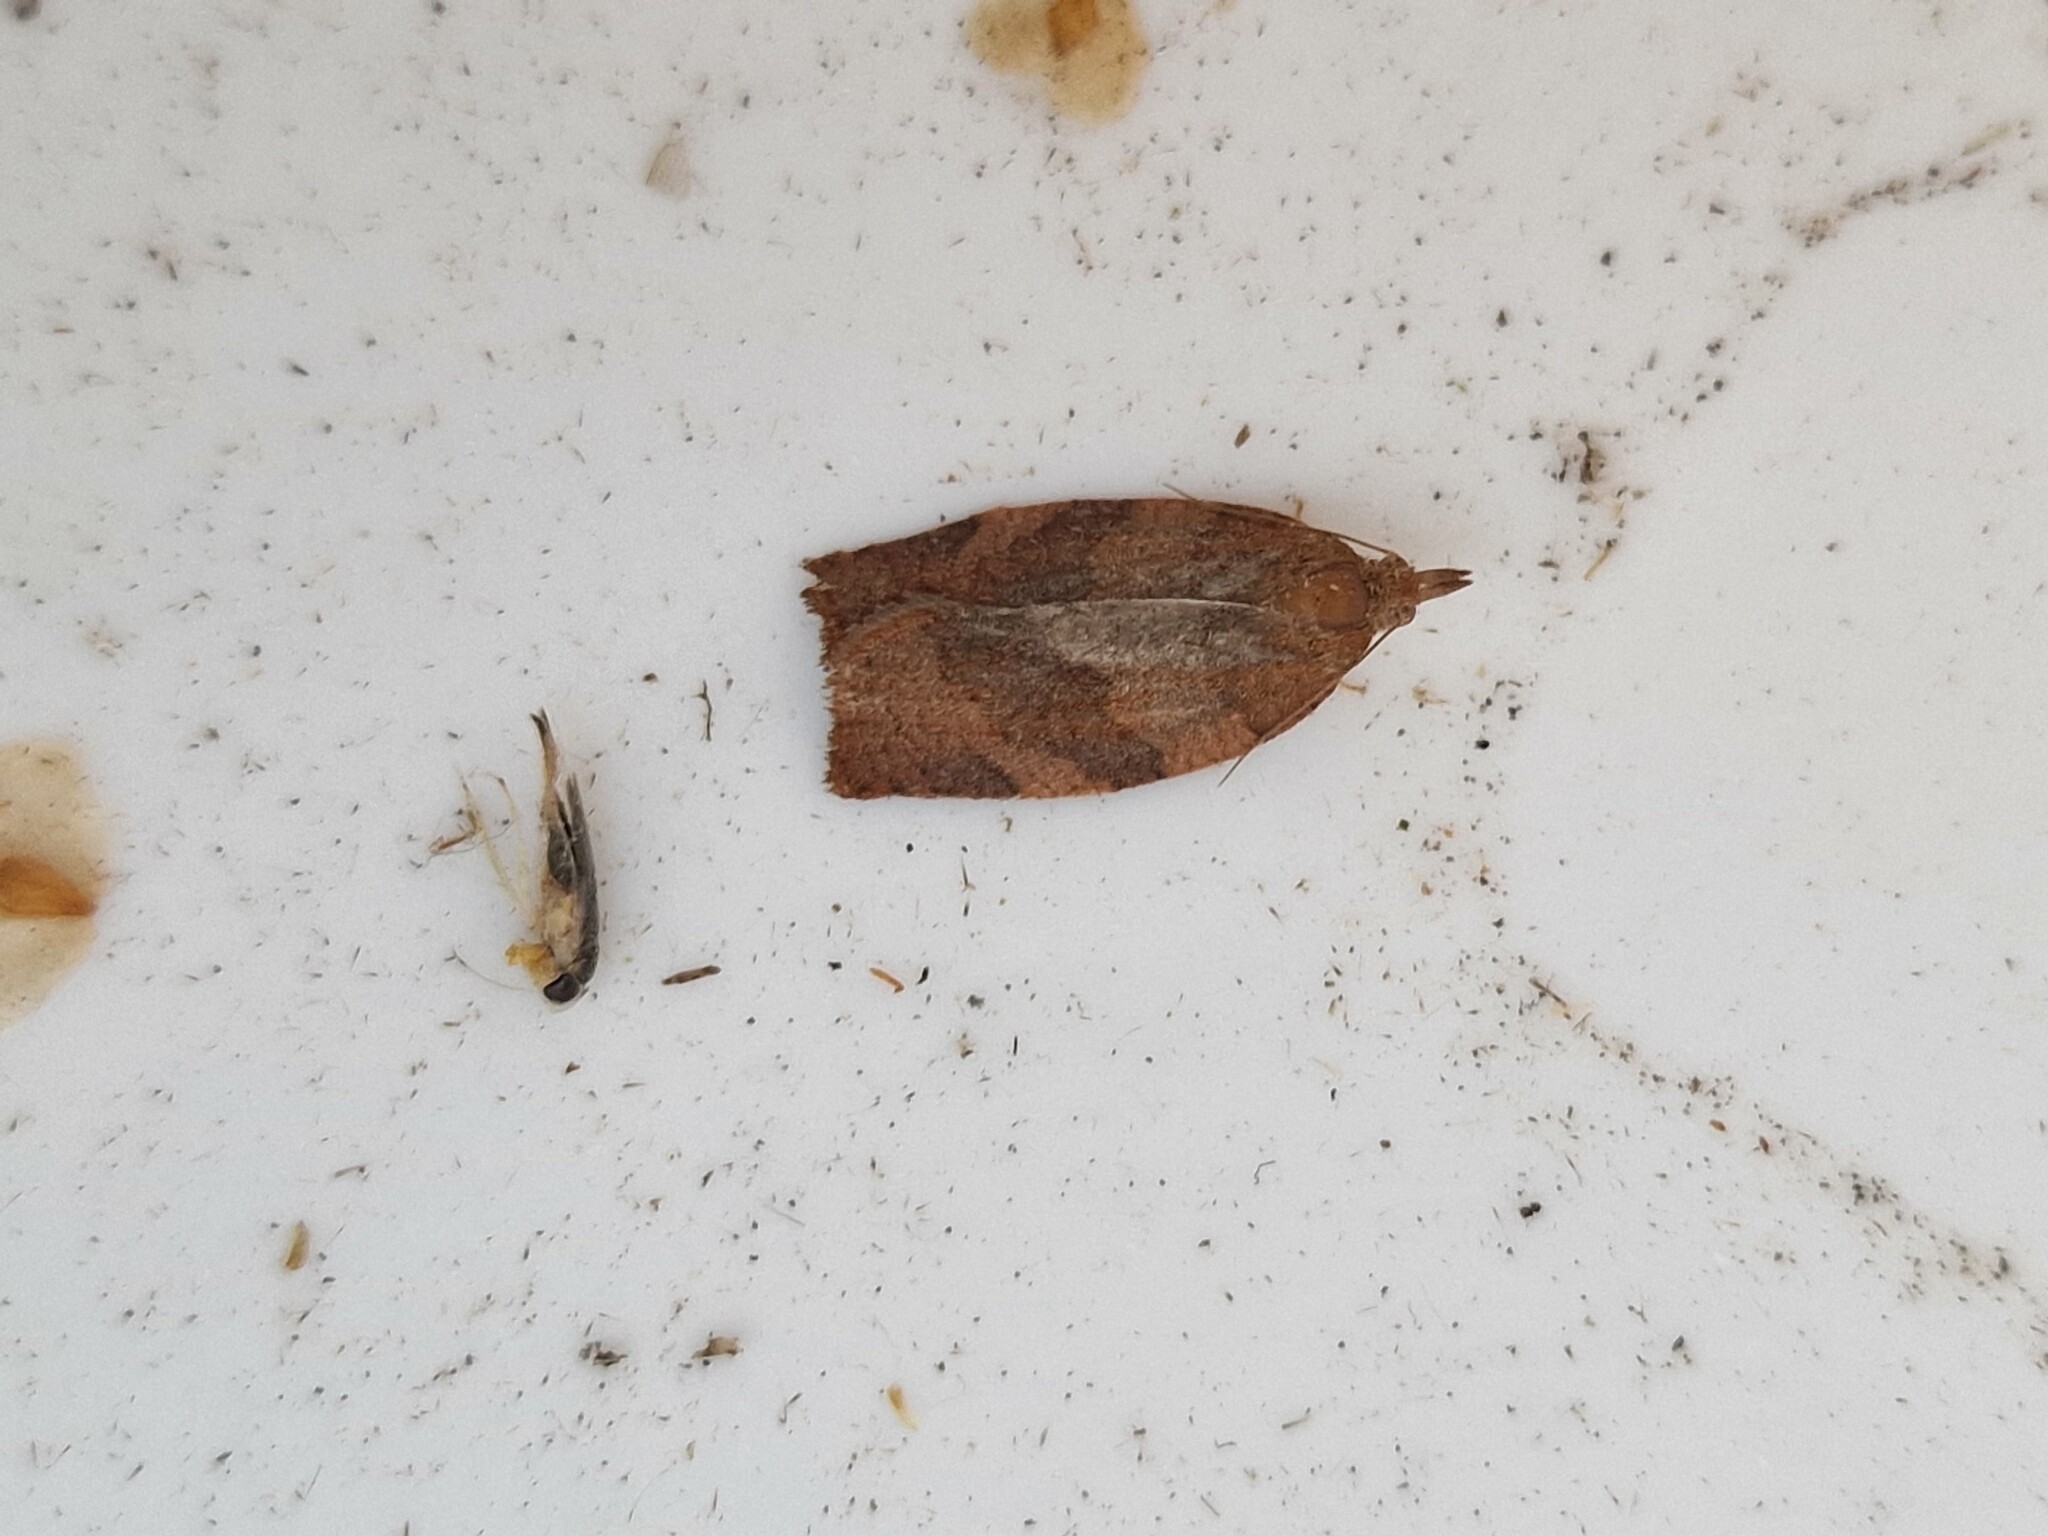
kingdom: Animalia
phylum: Arthropoda
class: Insecta
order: Lepidoptera
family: Tortricidae
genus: Pandemis
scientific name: Pandemis heparana
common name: Dark fruit-tree tortrix
